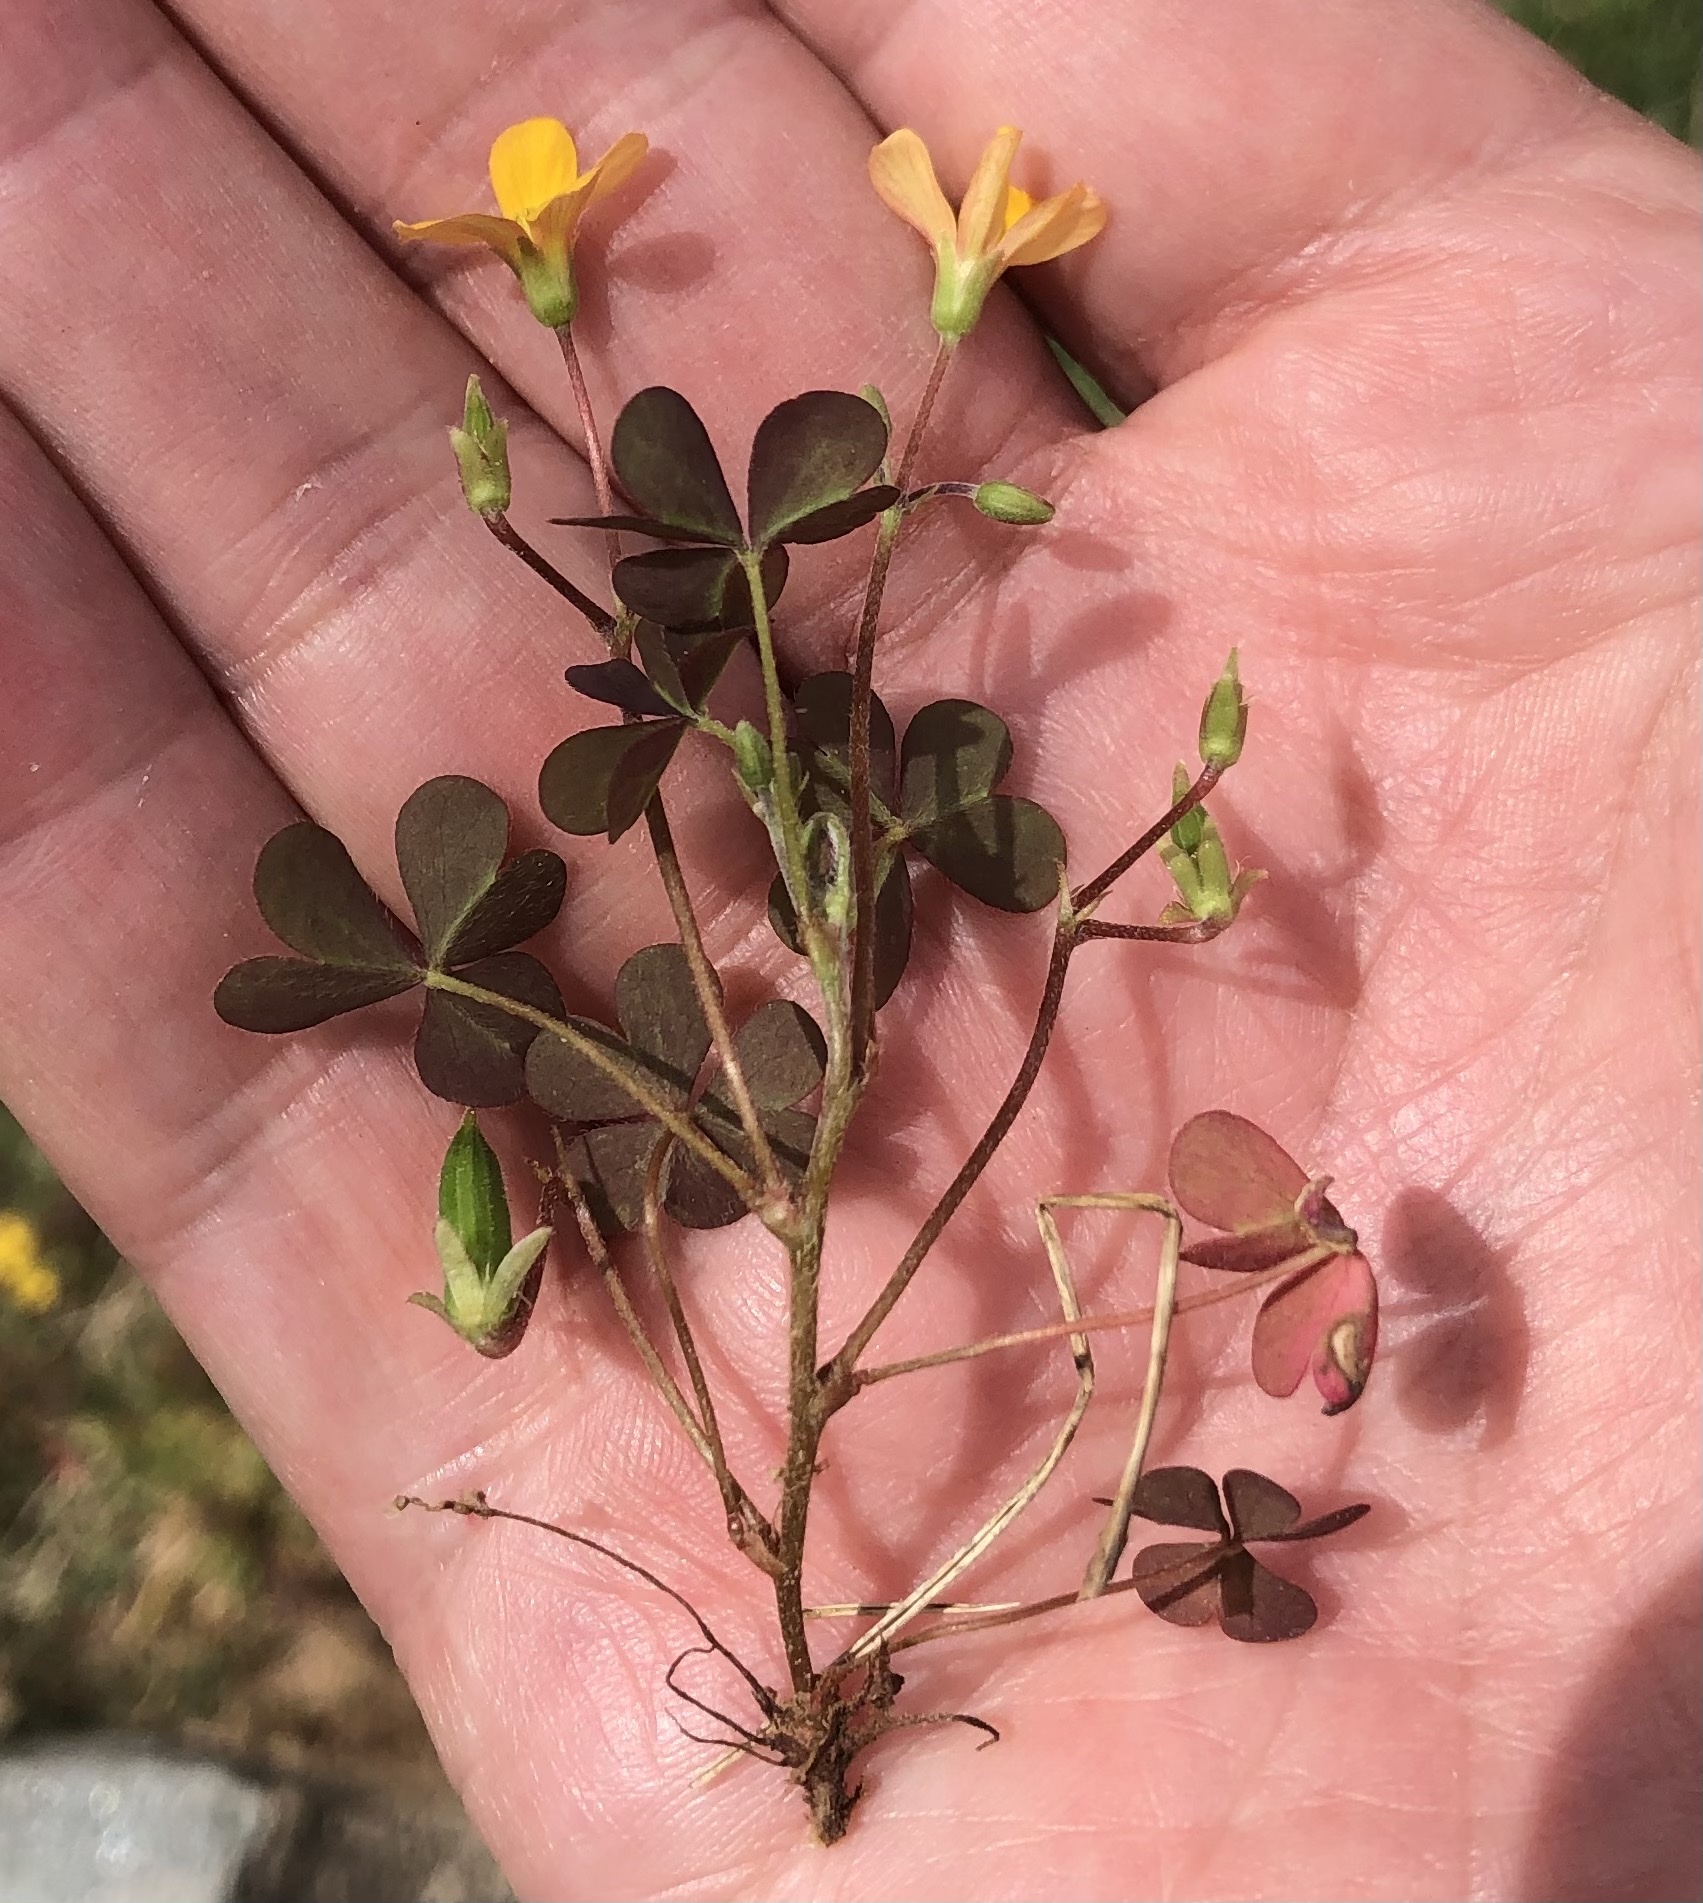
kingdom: Plantae
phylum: Tracheophyta
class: Magnoliopsida
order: Oxalidales
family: Oxalidaceae
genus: Oxalis
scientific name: Oxalis corniculata
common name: Procumbent yellow-sorrel
